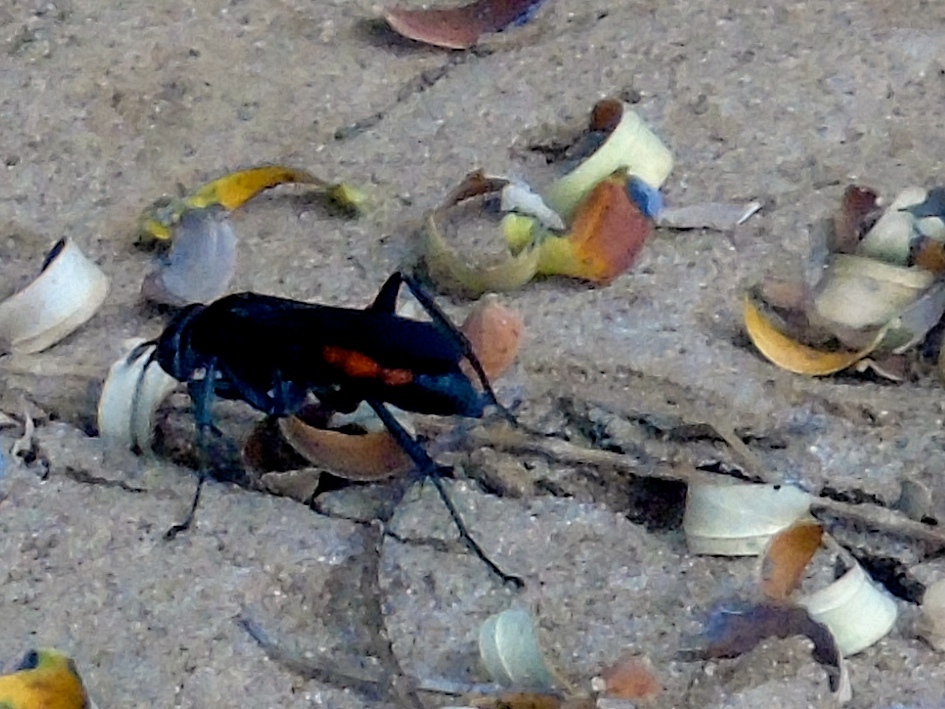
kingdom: Animalia
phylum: Arthropoda
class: Insecta
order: Hymenoptera
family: Pompilidae
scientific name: Pompilidae
